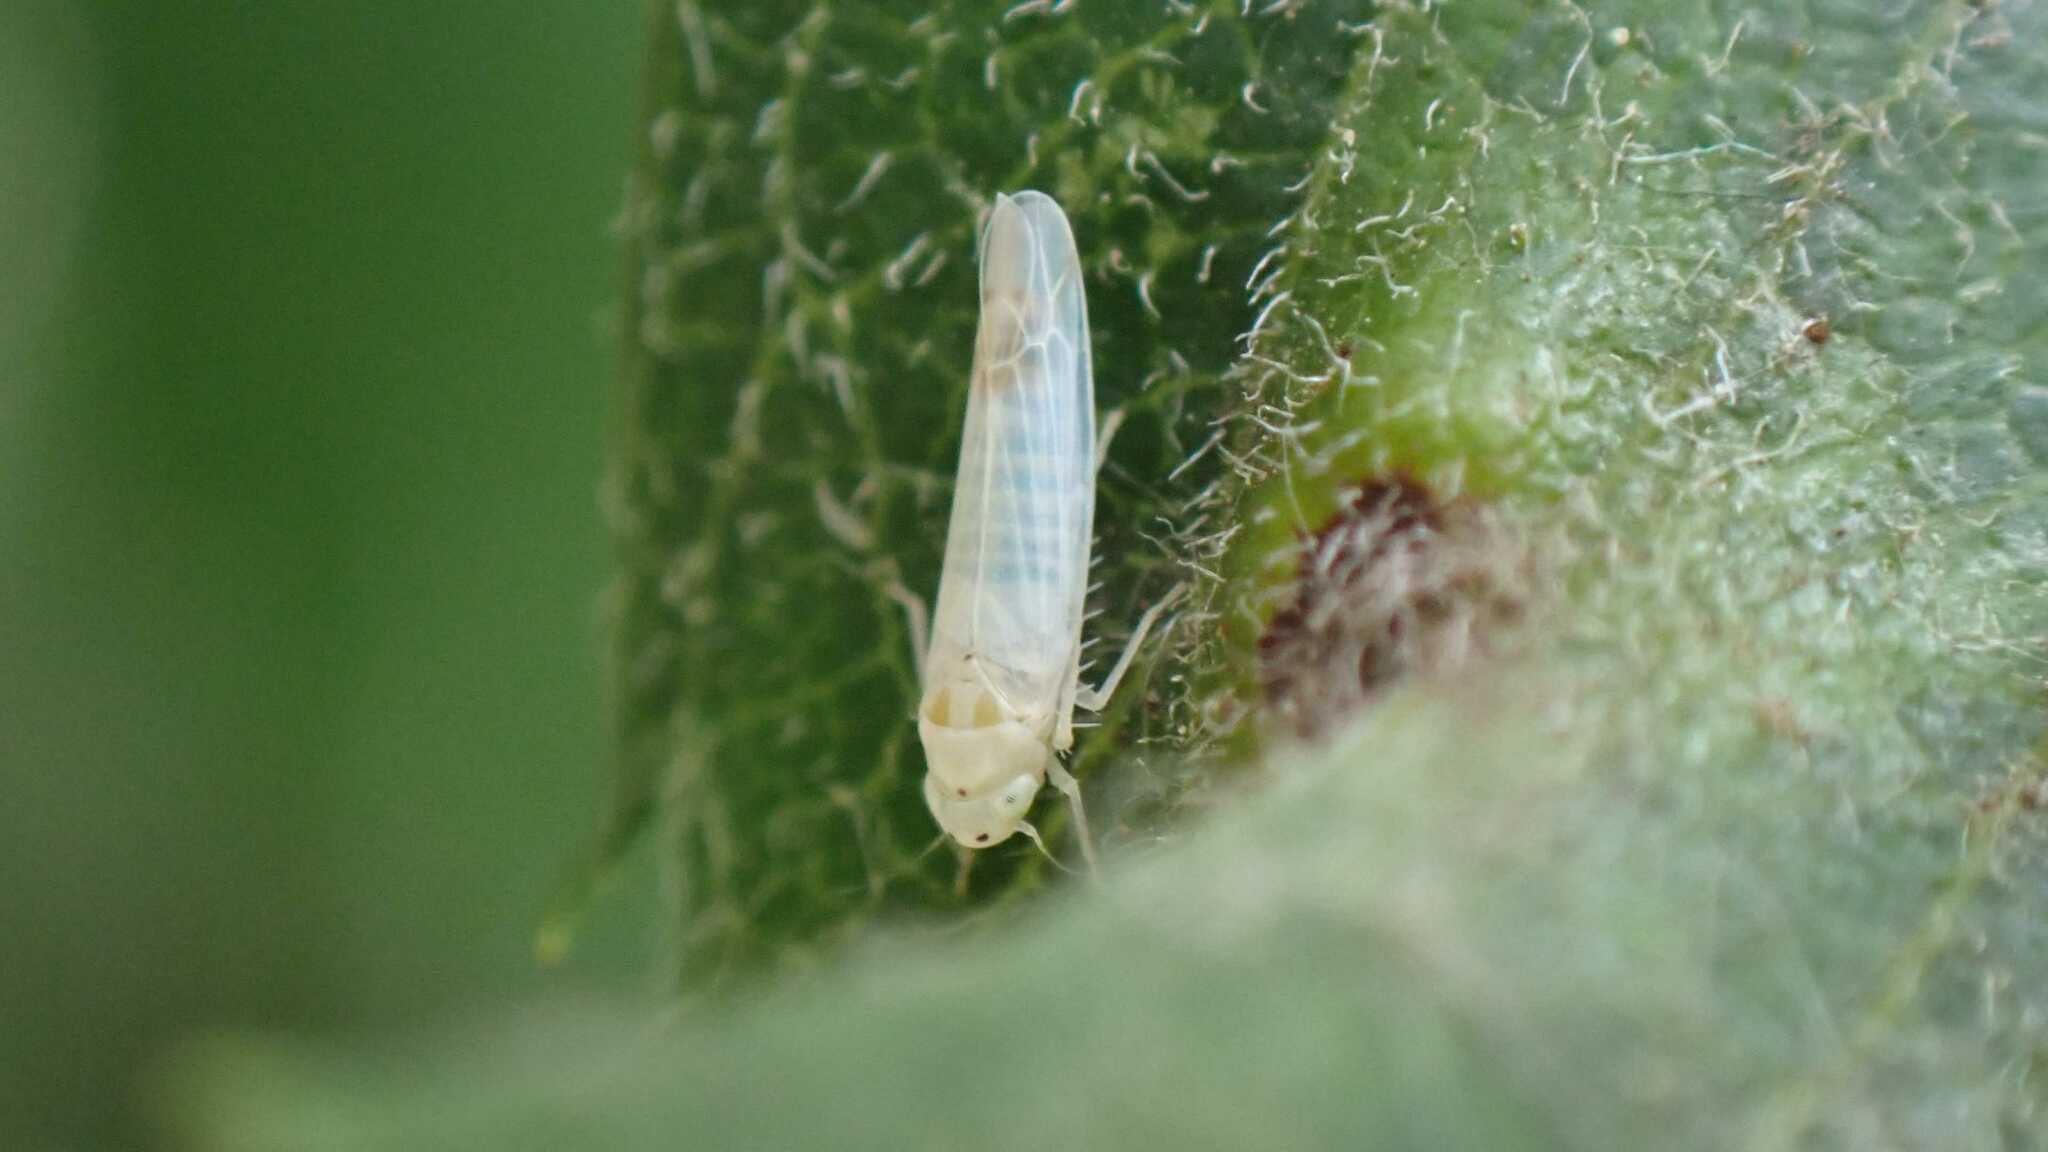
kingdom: Animalia
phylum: Arthropoda
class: Insecta
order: Hemiptera
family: Cicadellidae
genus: Ribautiana
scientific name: Ribautiana debilis
